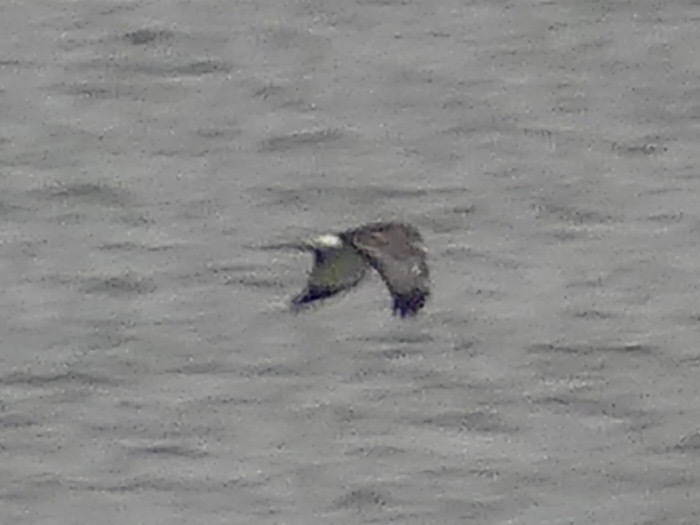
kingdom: Animalia
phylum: Chordata
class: Aves
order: Accipitriformes
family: Accipitridae
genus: Circus
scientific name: Circus cyaneus
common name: Hen harrier
